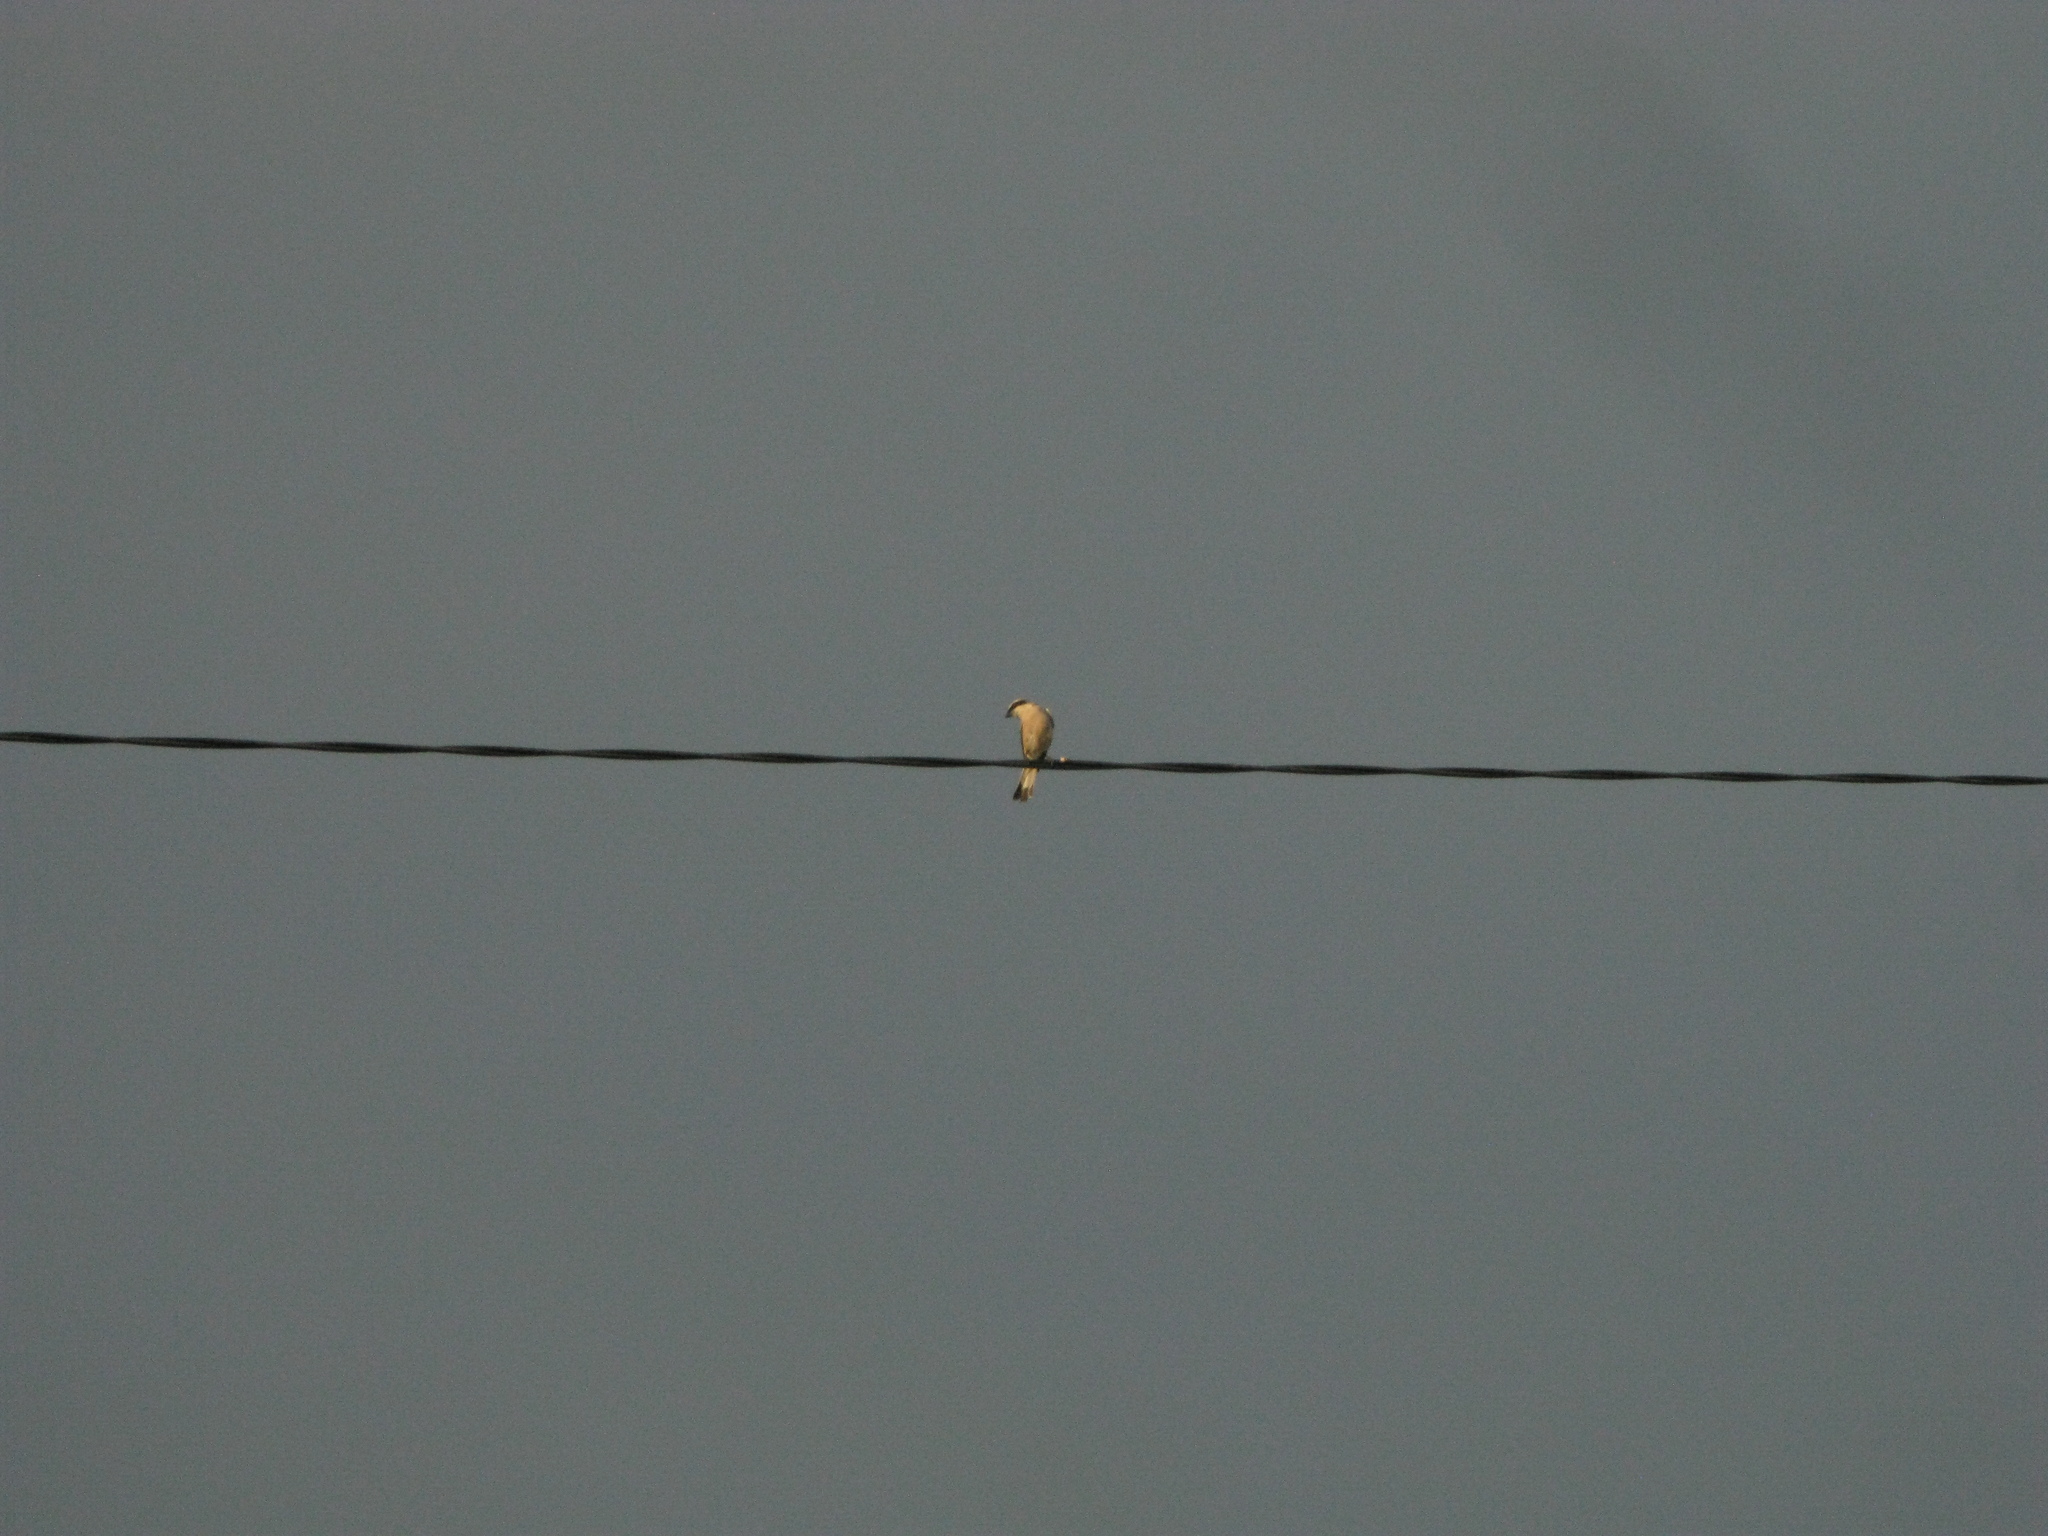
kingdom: Animalia
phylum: Chordata
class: Aves
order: Passeriformes
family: Laniidae
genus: Lanius
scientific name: Lanius collurio
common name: Red-backed shrike
